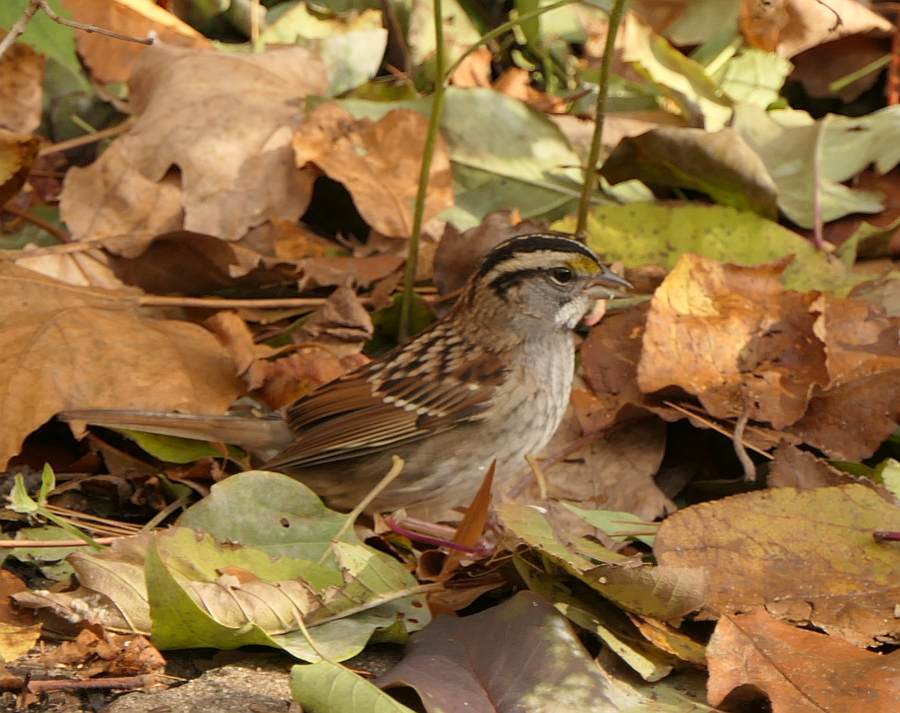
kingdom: Animalia
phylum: Chordata
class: Aves
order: Passeriformes
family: Passerellidae
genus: Zonotrichia
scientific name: Zonotrichia albicollis
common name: White-throated sparrow
